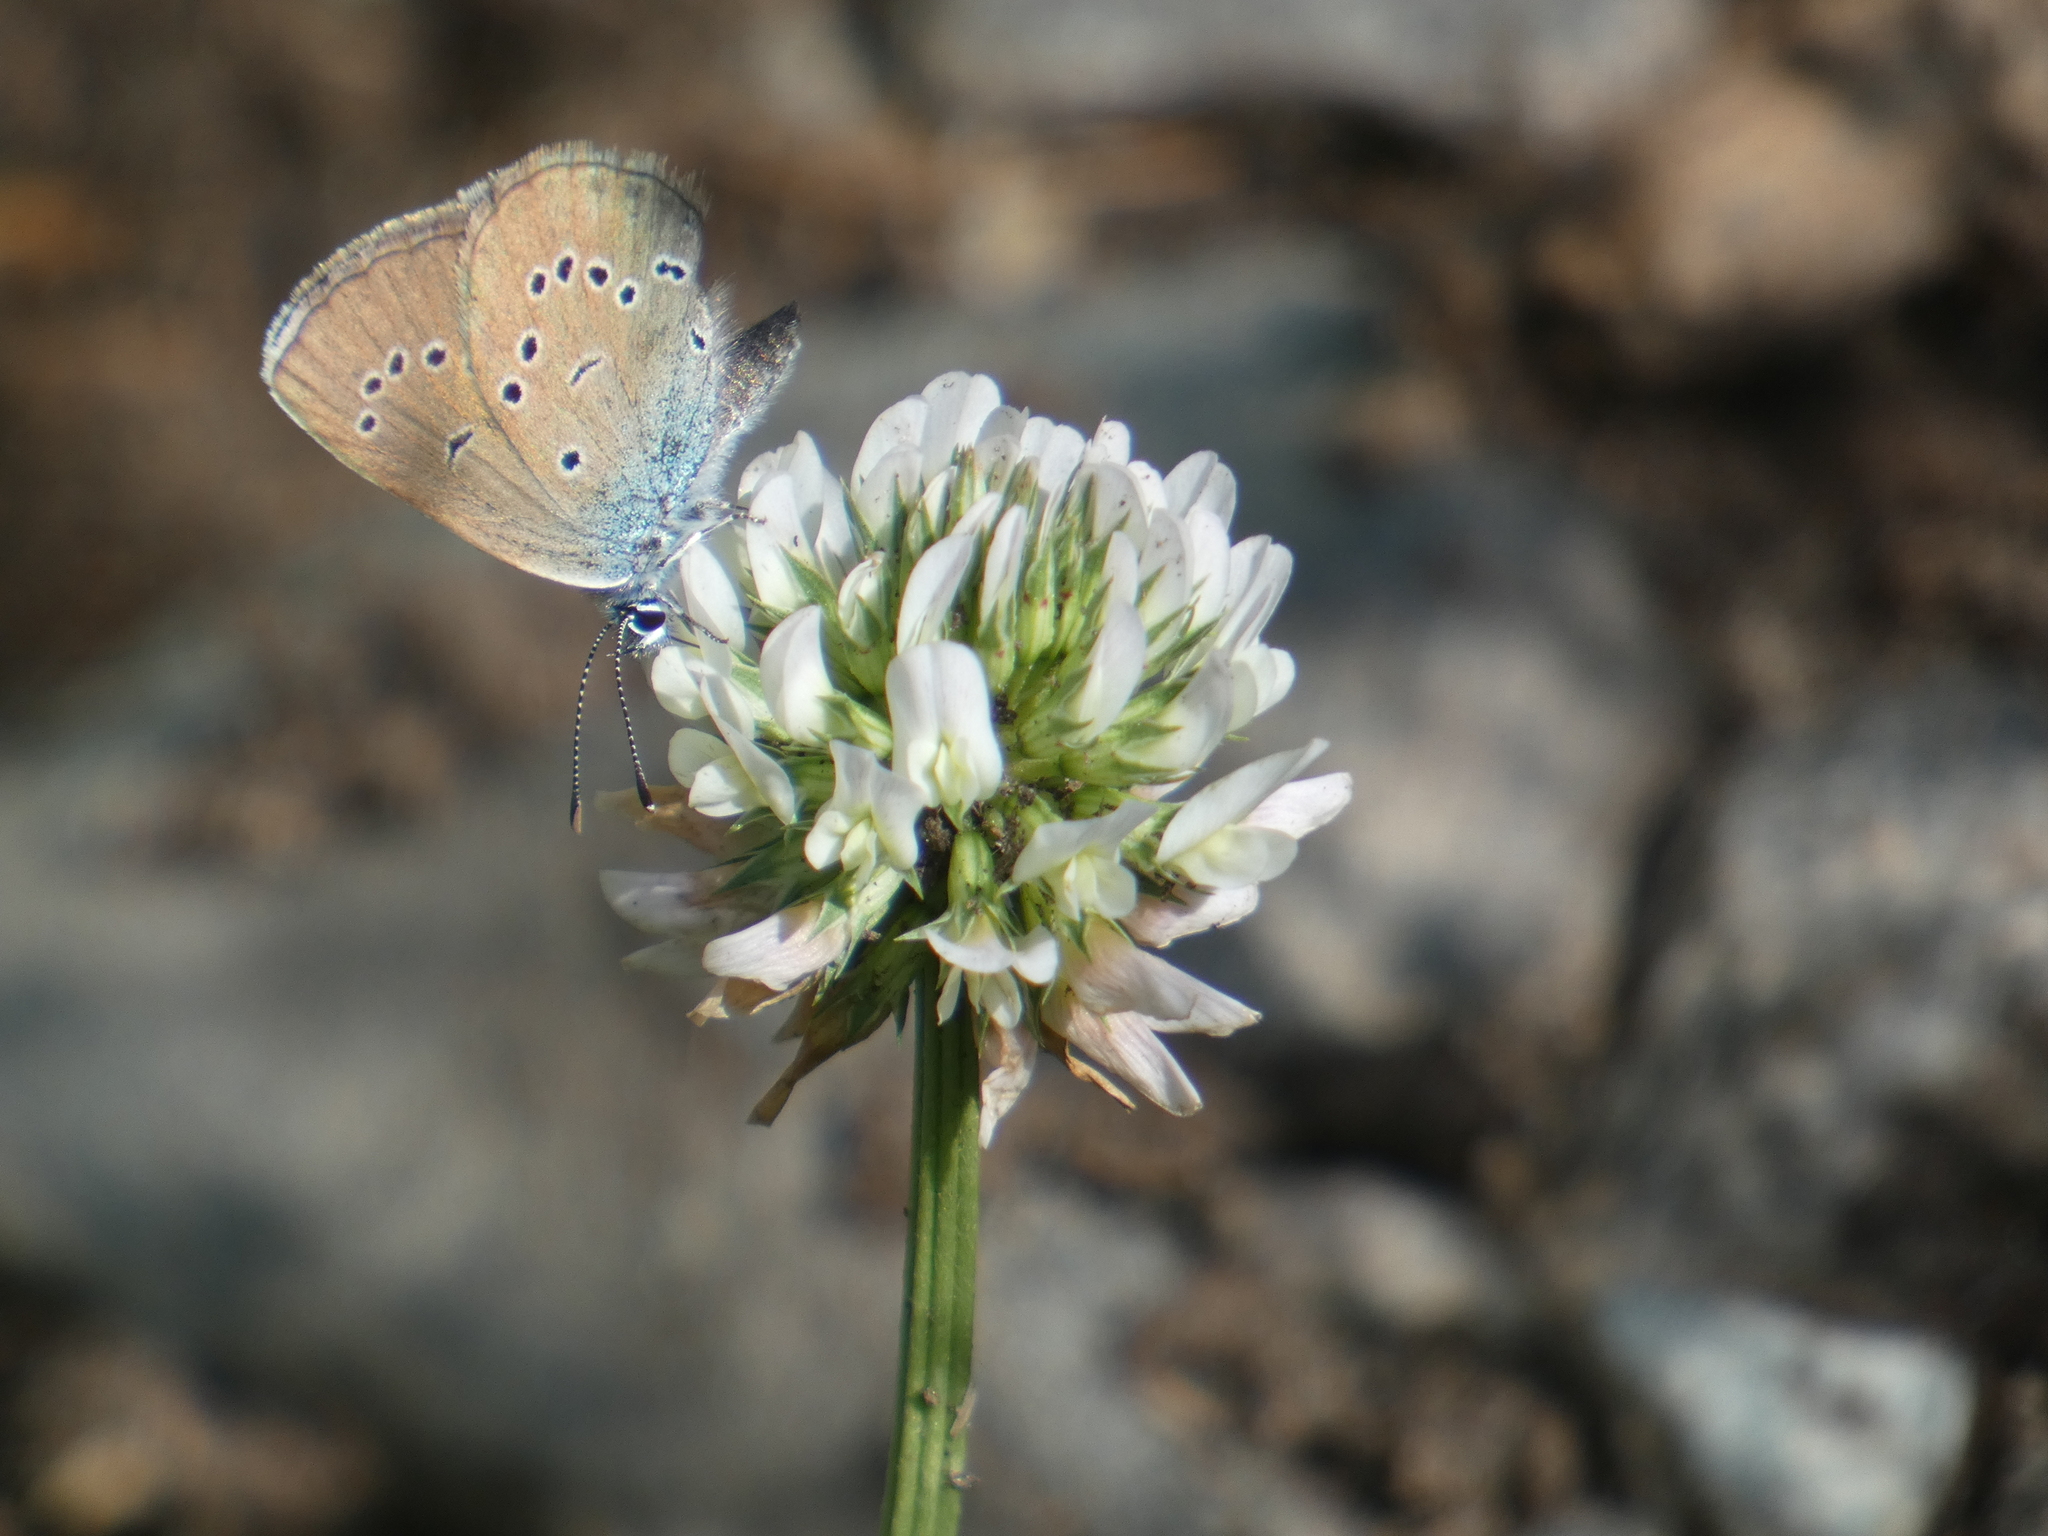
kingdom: Animalia
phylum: Arthropoda
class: Insecta
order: Lepidoptera
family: Lycaenidae
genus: Cyaniris
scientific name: Cyaniris semiargus
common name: Mazarine blue
